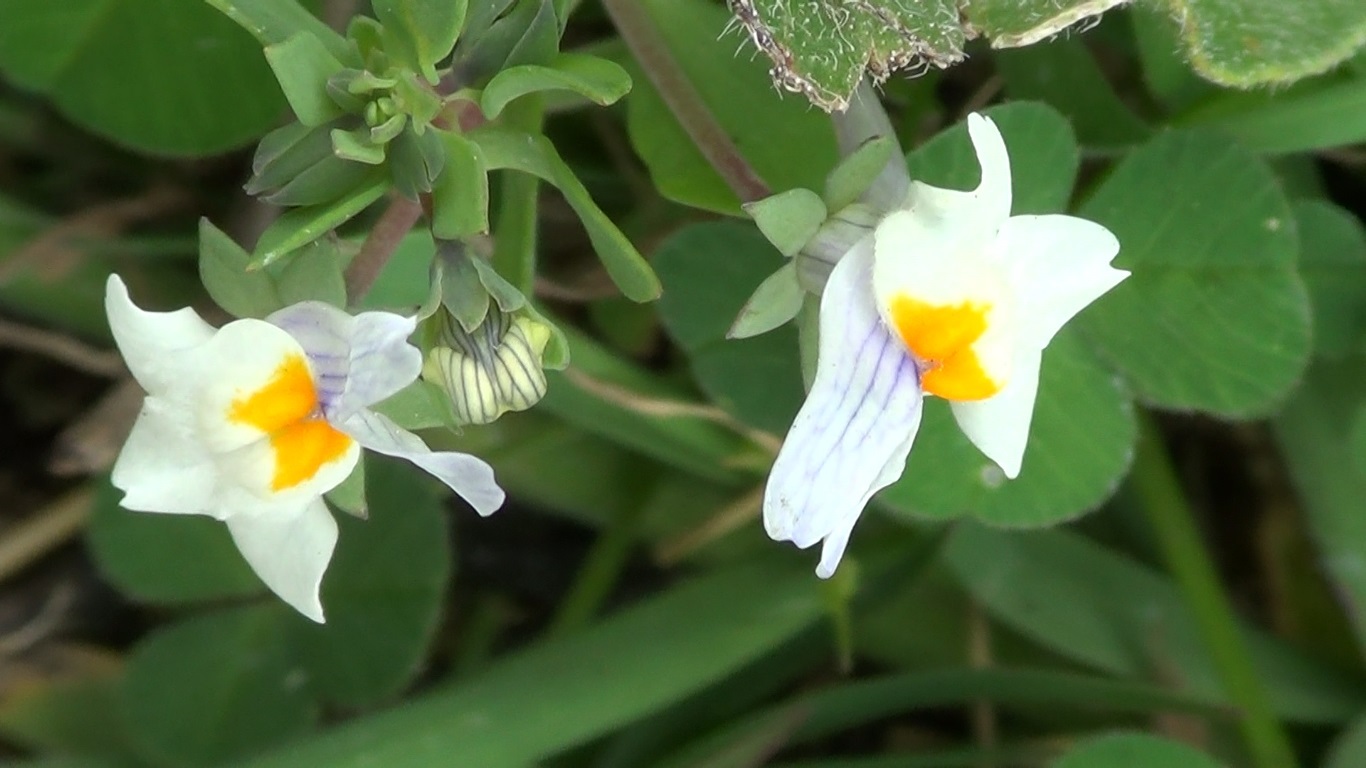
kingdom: Plantae
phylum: Tracheophyta
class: Magnoliopsida
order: Lamiales
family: Plantaginaceae
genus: Linaria
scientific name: Linaria reflexa
